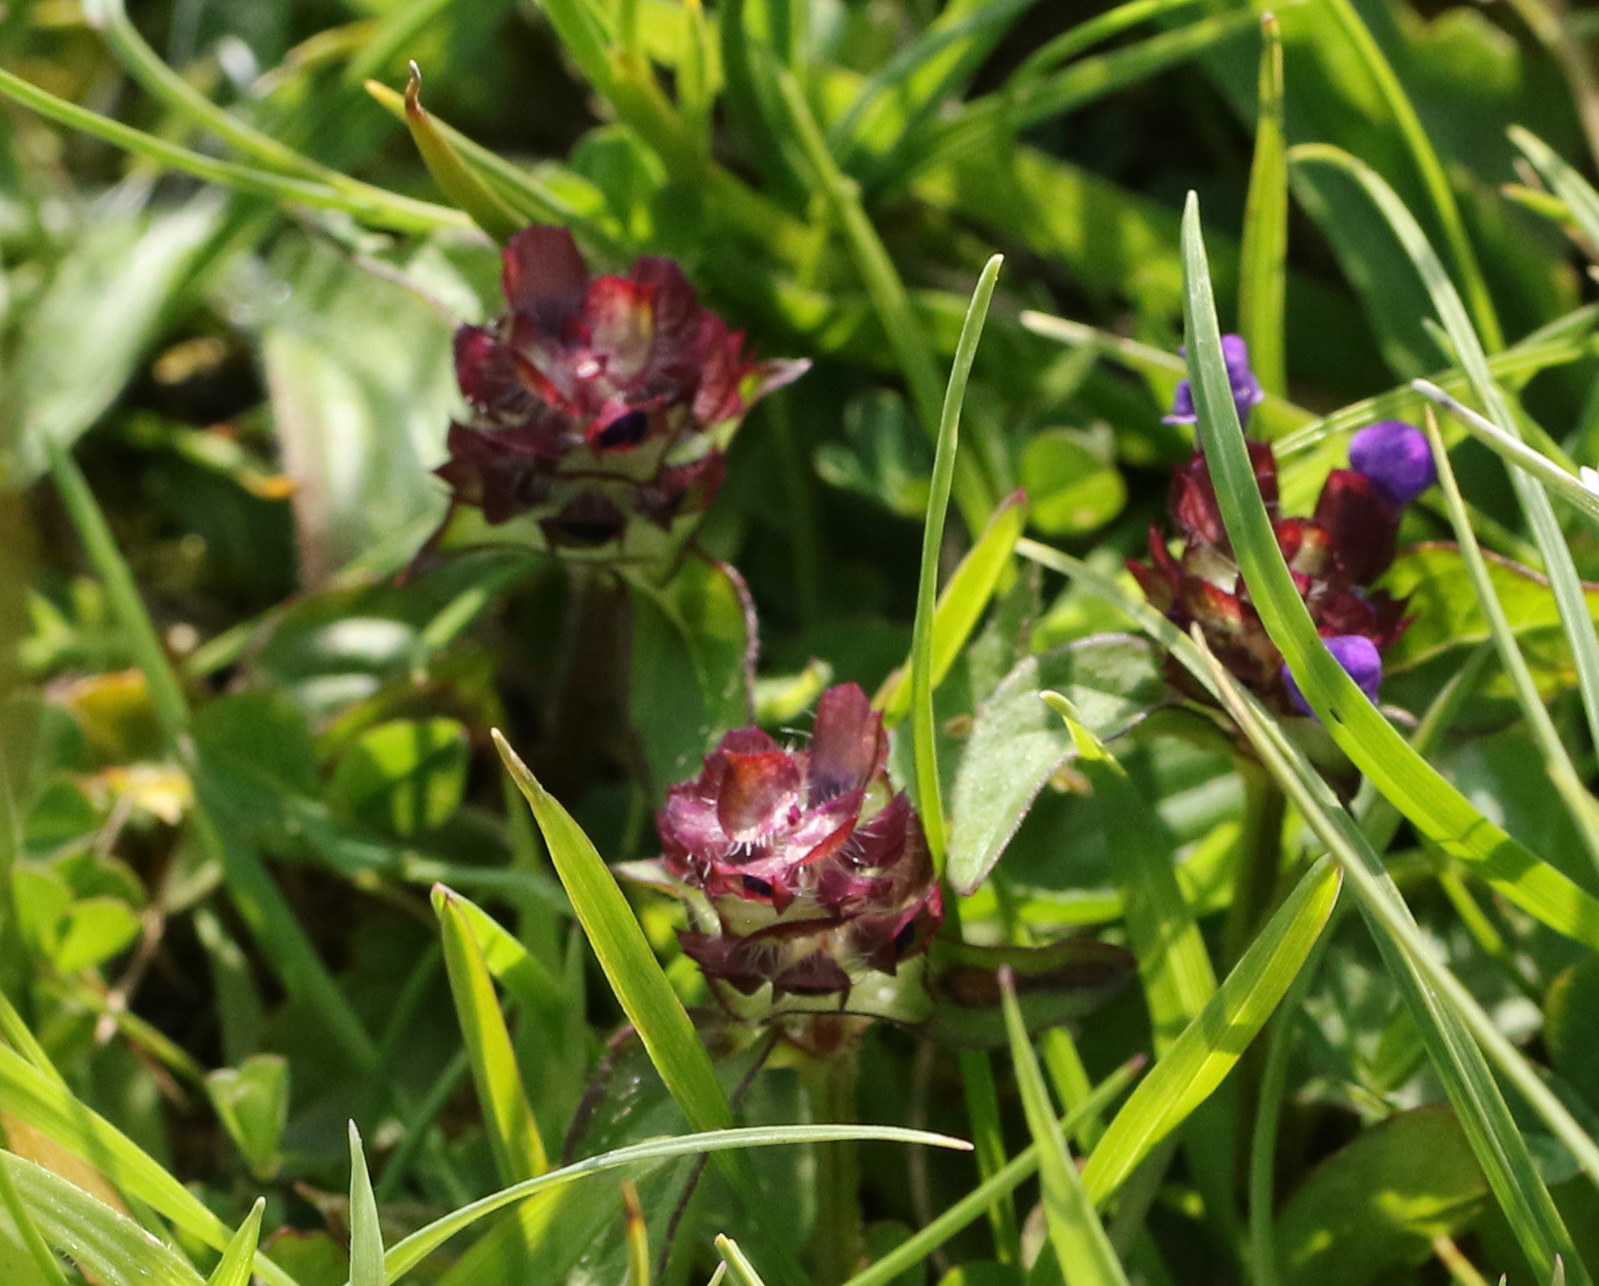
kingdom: Plantae
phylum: Tracheophyta
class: Magnoliopsida
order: Lamiales
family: Lamiaceae
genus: Prunella
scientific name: Prunella vulgaris
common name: Heal-all
